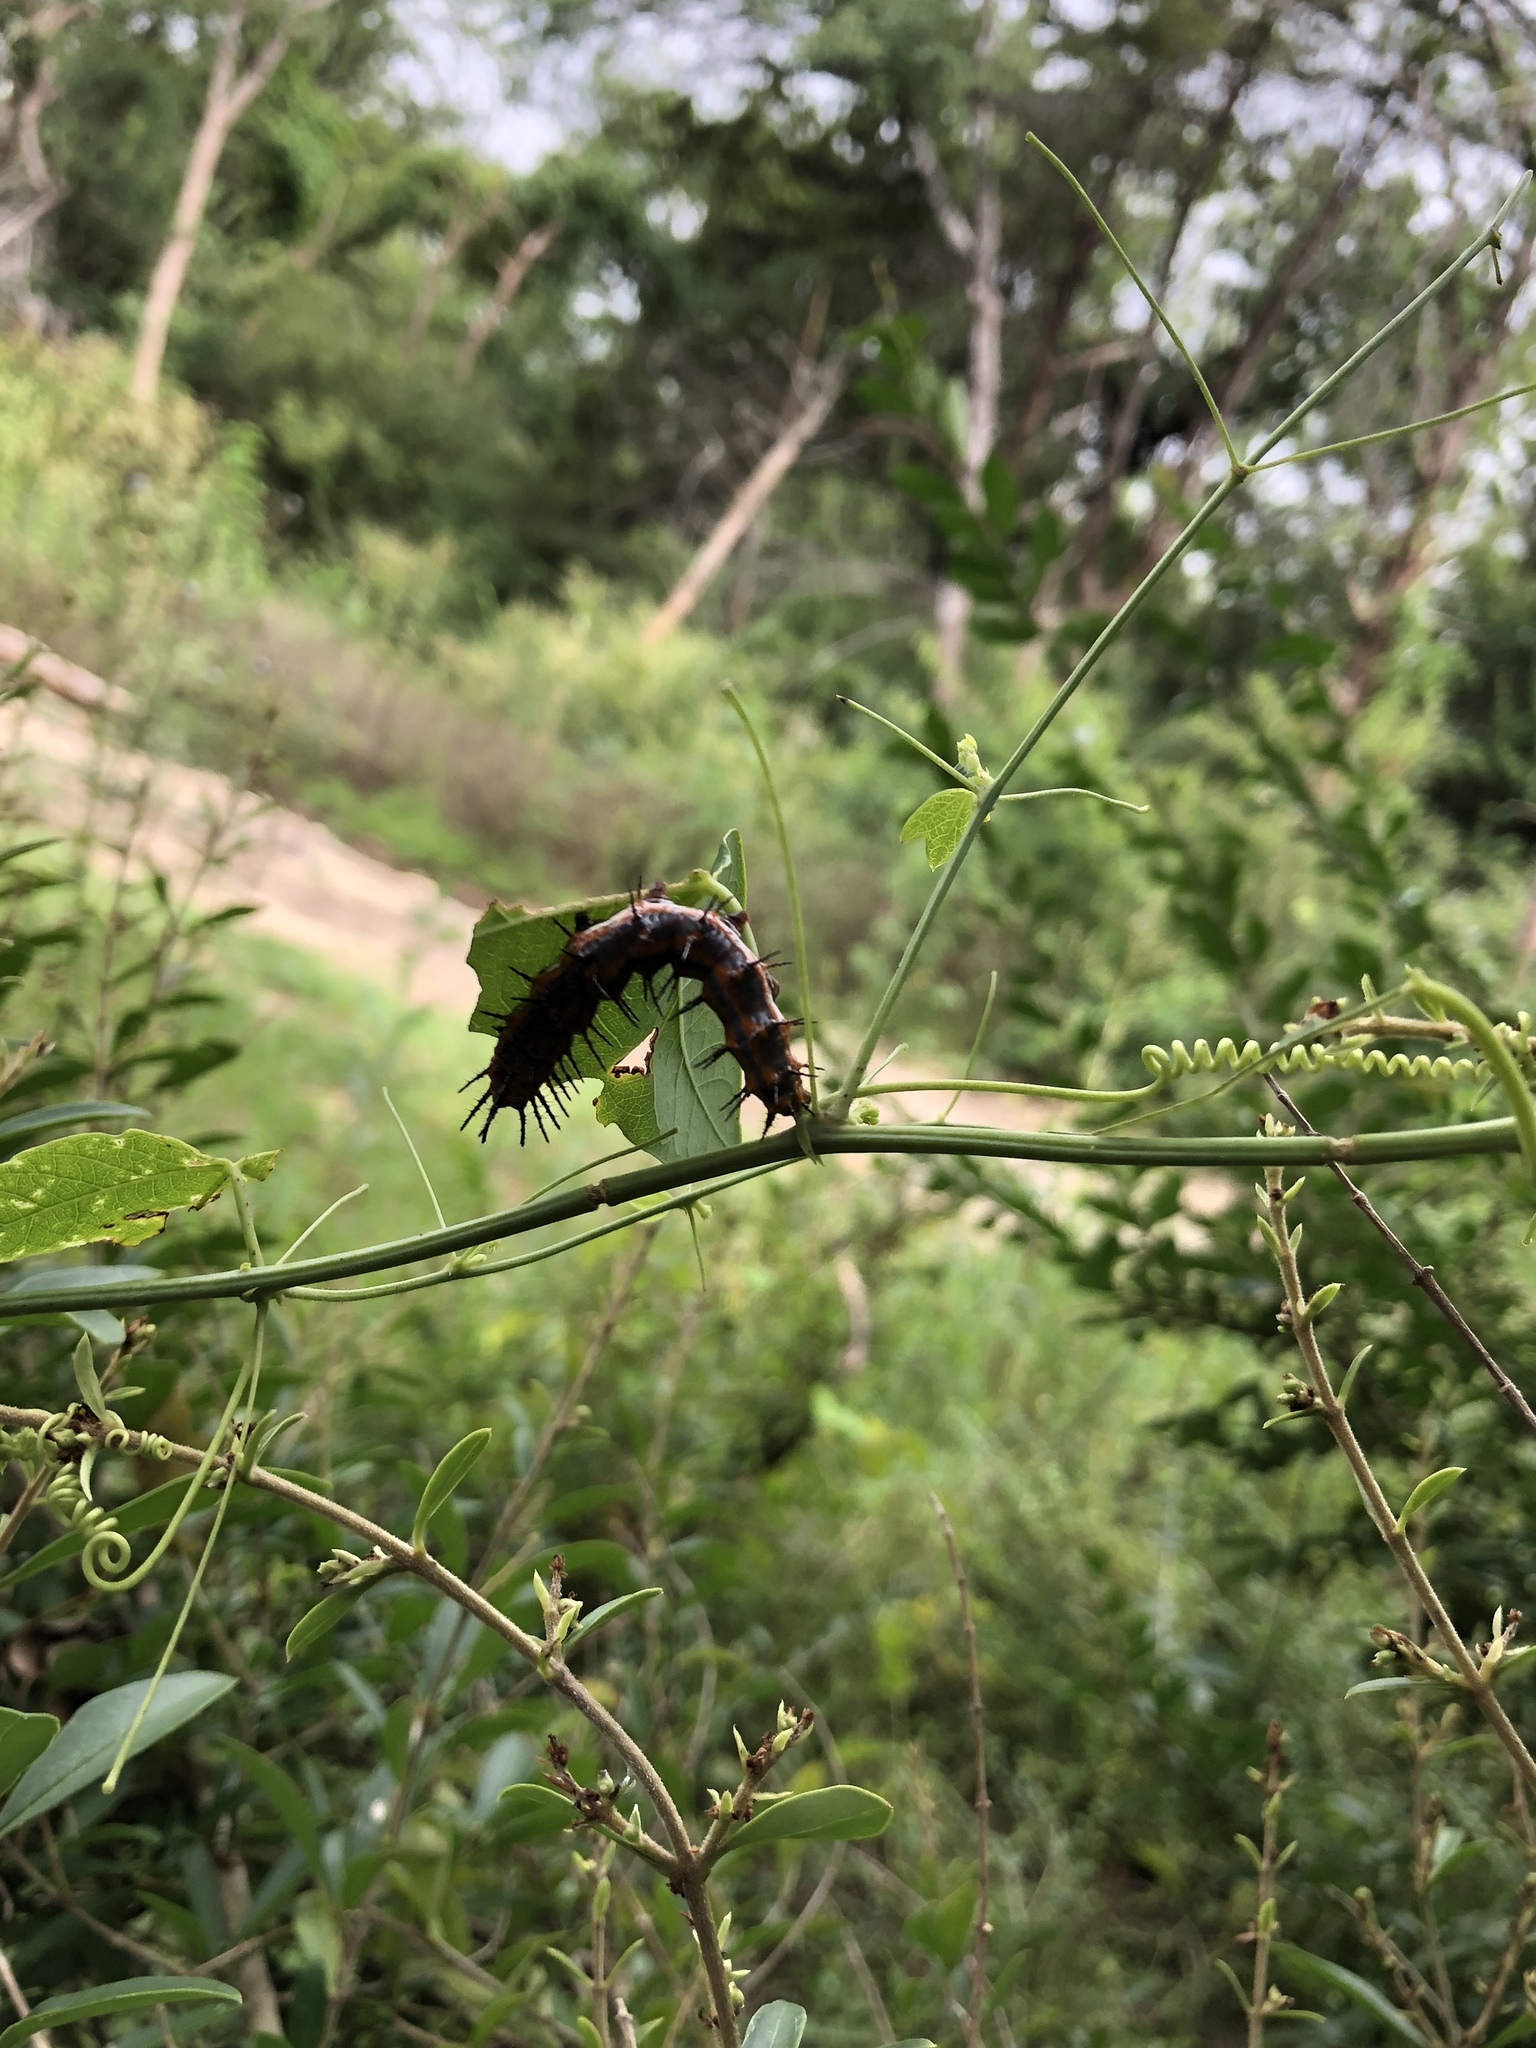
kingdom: Animalia
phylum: Arthropoda
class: Insecta
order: Lepidoptera
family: Nymphalidae
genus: Dione
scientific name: Dione vanillae
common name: Gulf fritillary
